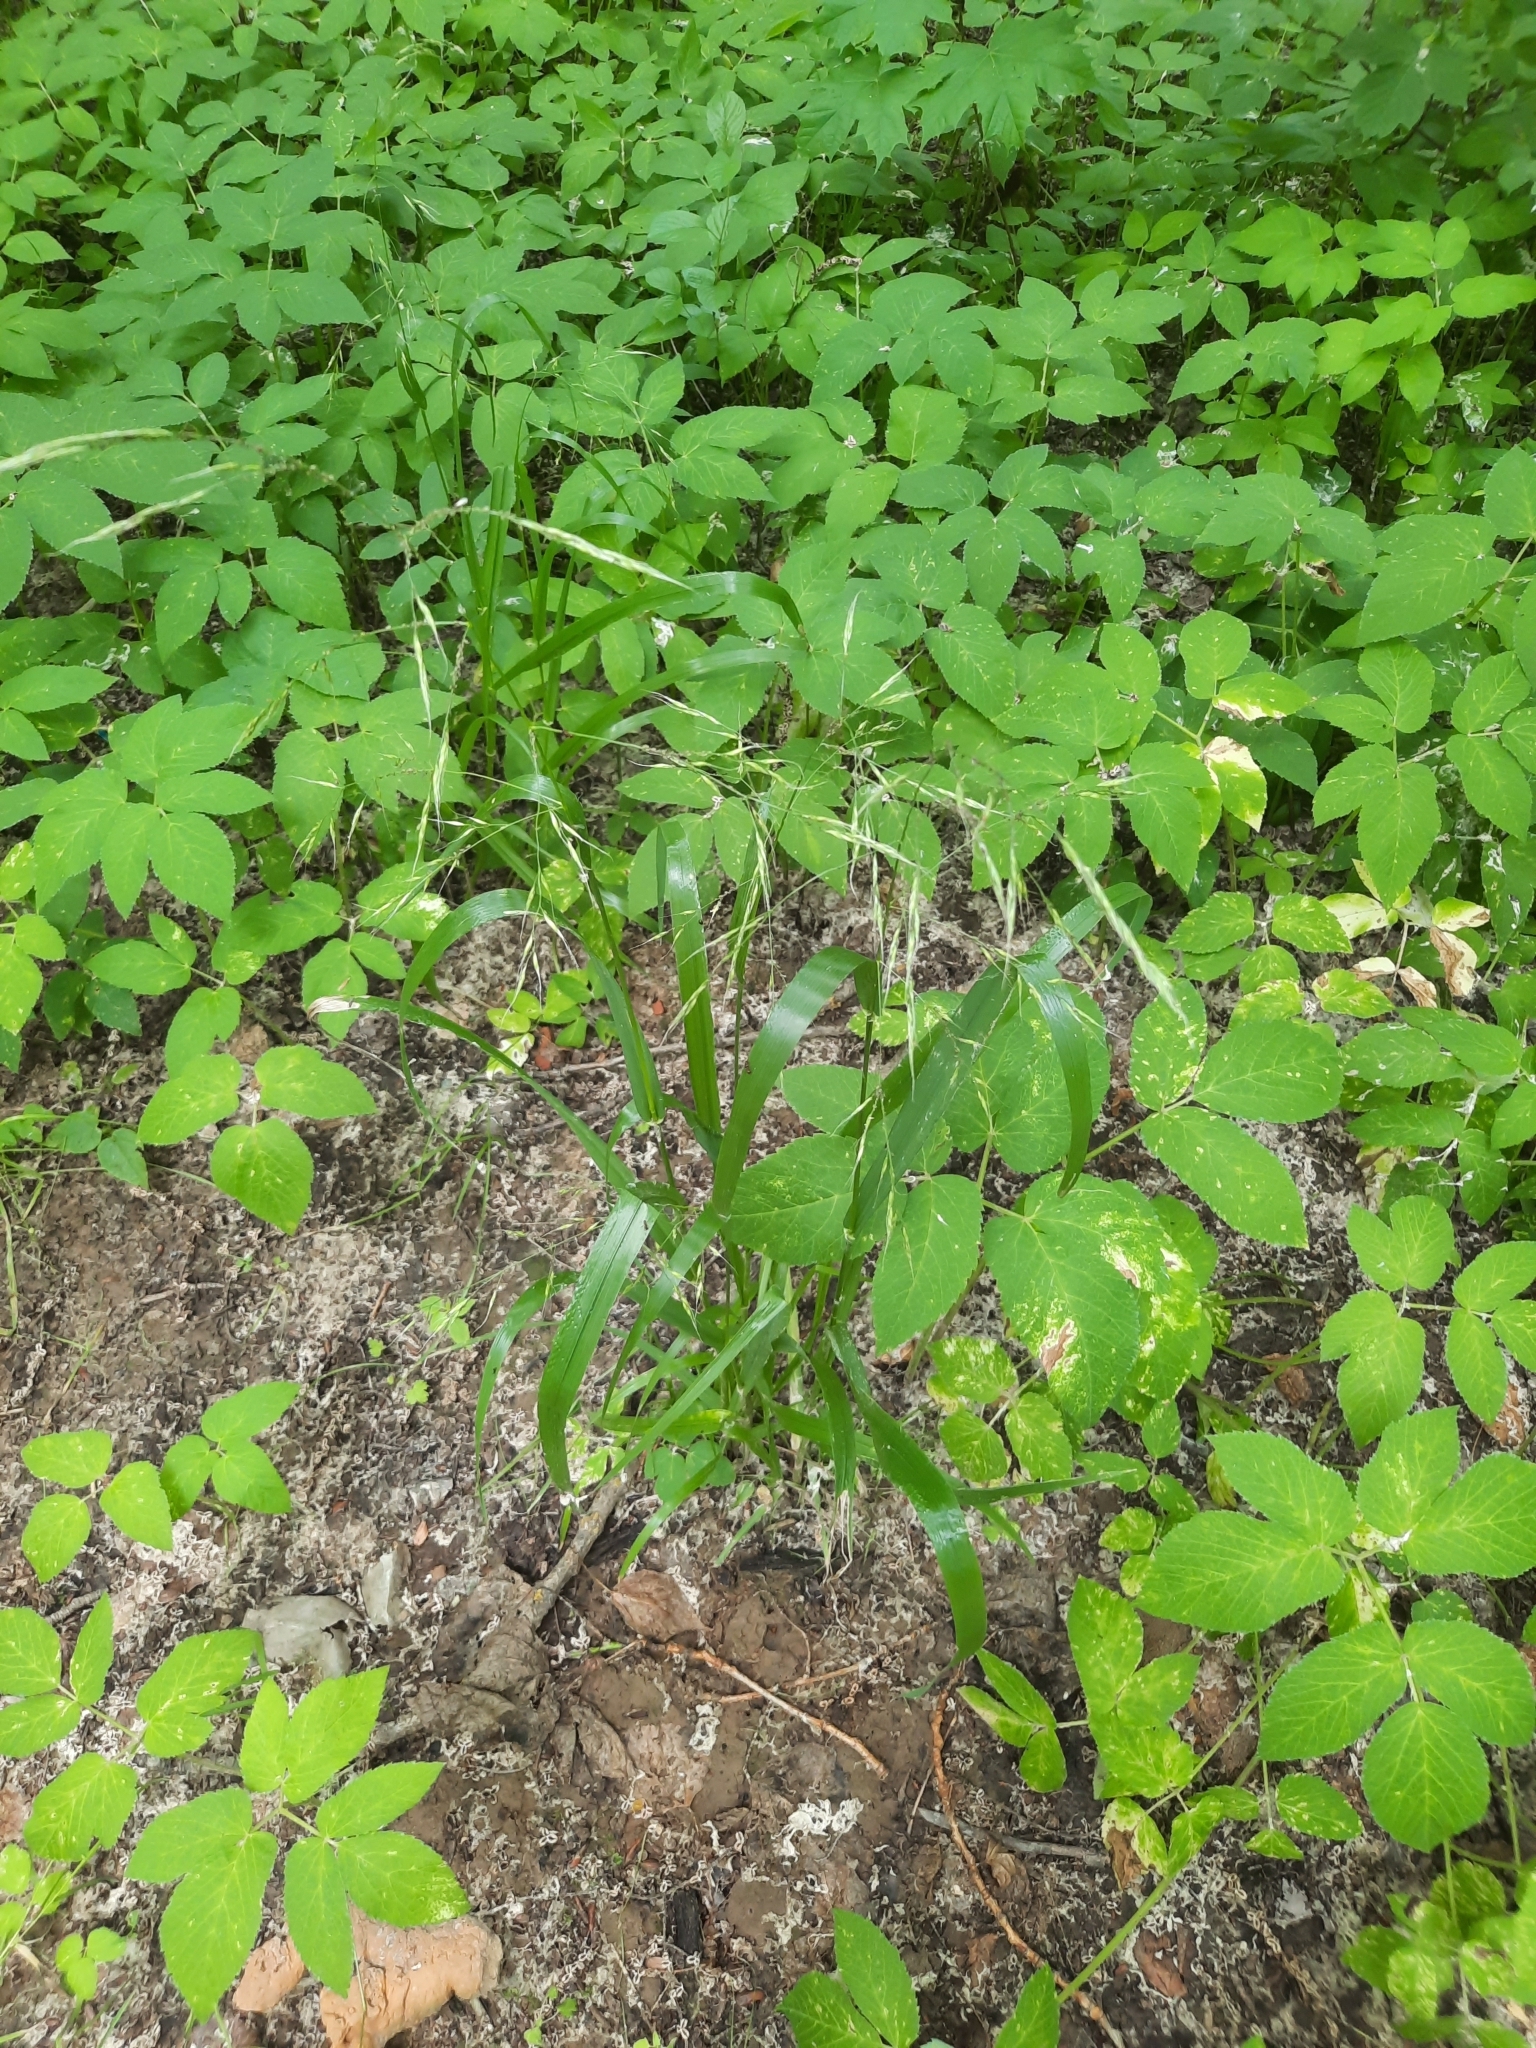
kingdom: Plantae
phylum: Tracheophyta
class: Liliopsida
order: Poales
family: Poaceae
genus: Lolium
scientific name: Lolium giganteum
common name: Giant fescue
